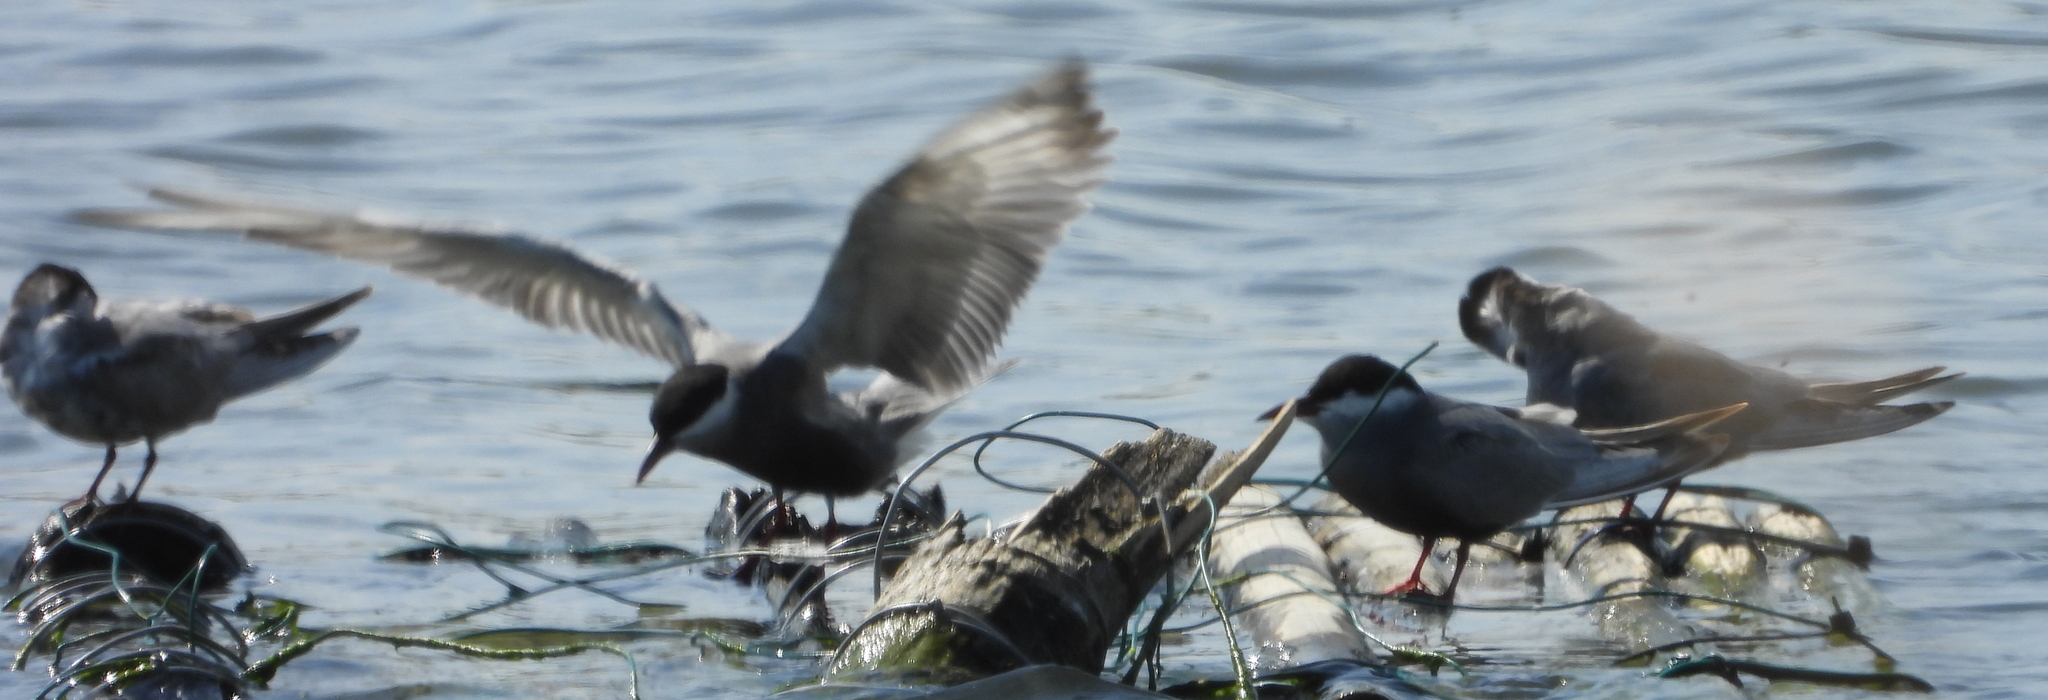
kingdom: Animalia
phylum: Chordata
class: Aves
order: Charadriiformes
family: Laridae
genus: Chlidonias
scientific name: Chlidonias hybrida
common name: Whiskered tern
